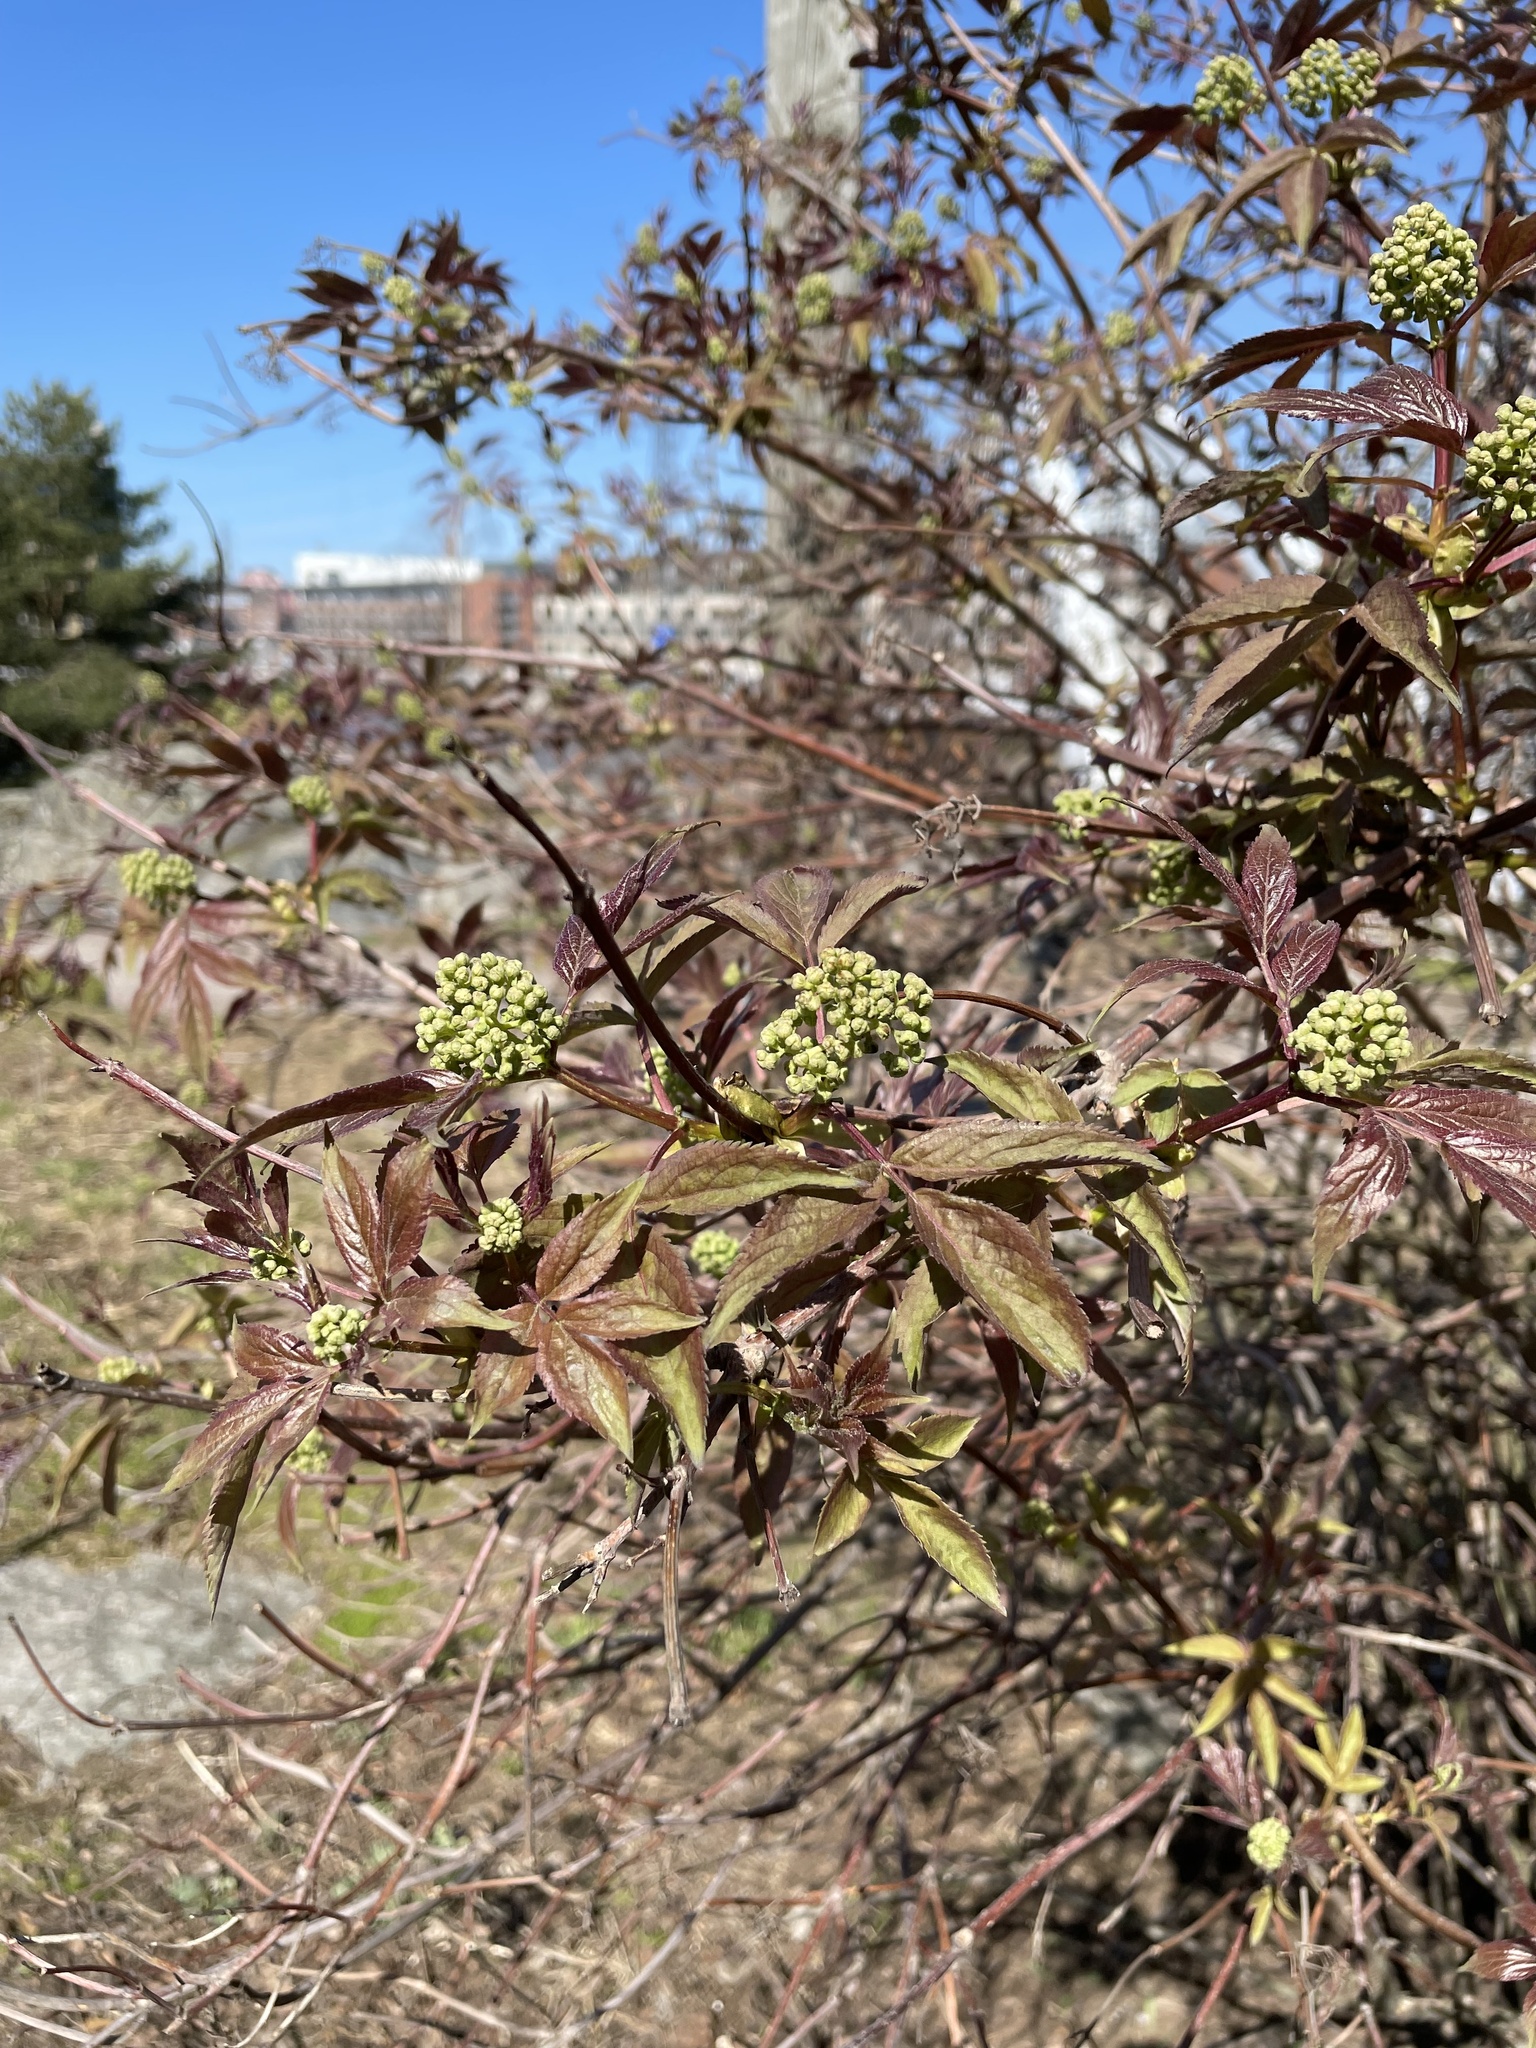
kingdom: Plantae
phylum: Tracheophyta
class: Magnoliopsida
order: Dipsacales
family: Viburnaceae
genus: Sambucus
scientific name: Sambucus racemosa
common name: Red-berried elder
